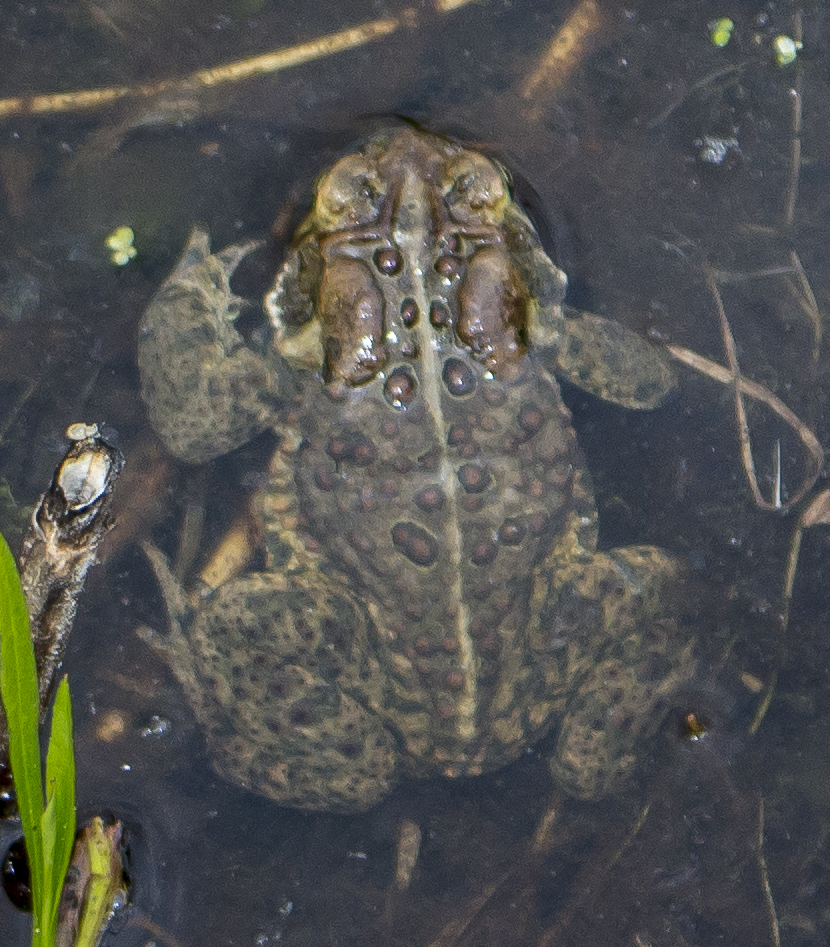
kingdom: Animalia
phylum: Chordata
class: Amphibia
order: Anura
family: Bufonidae
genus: Anaxyrus
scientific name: Anaxyrus americanus
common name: American toad
